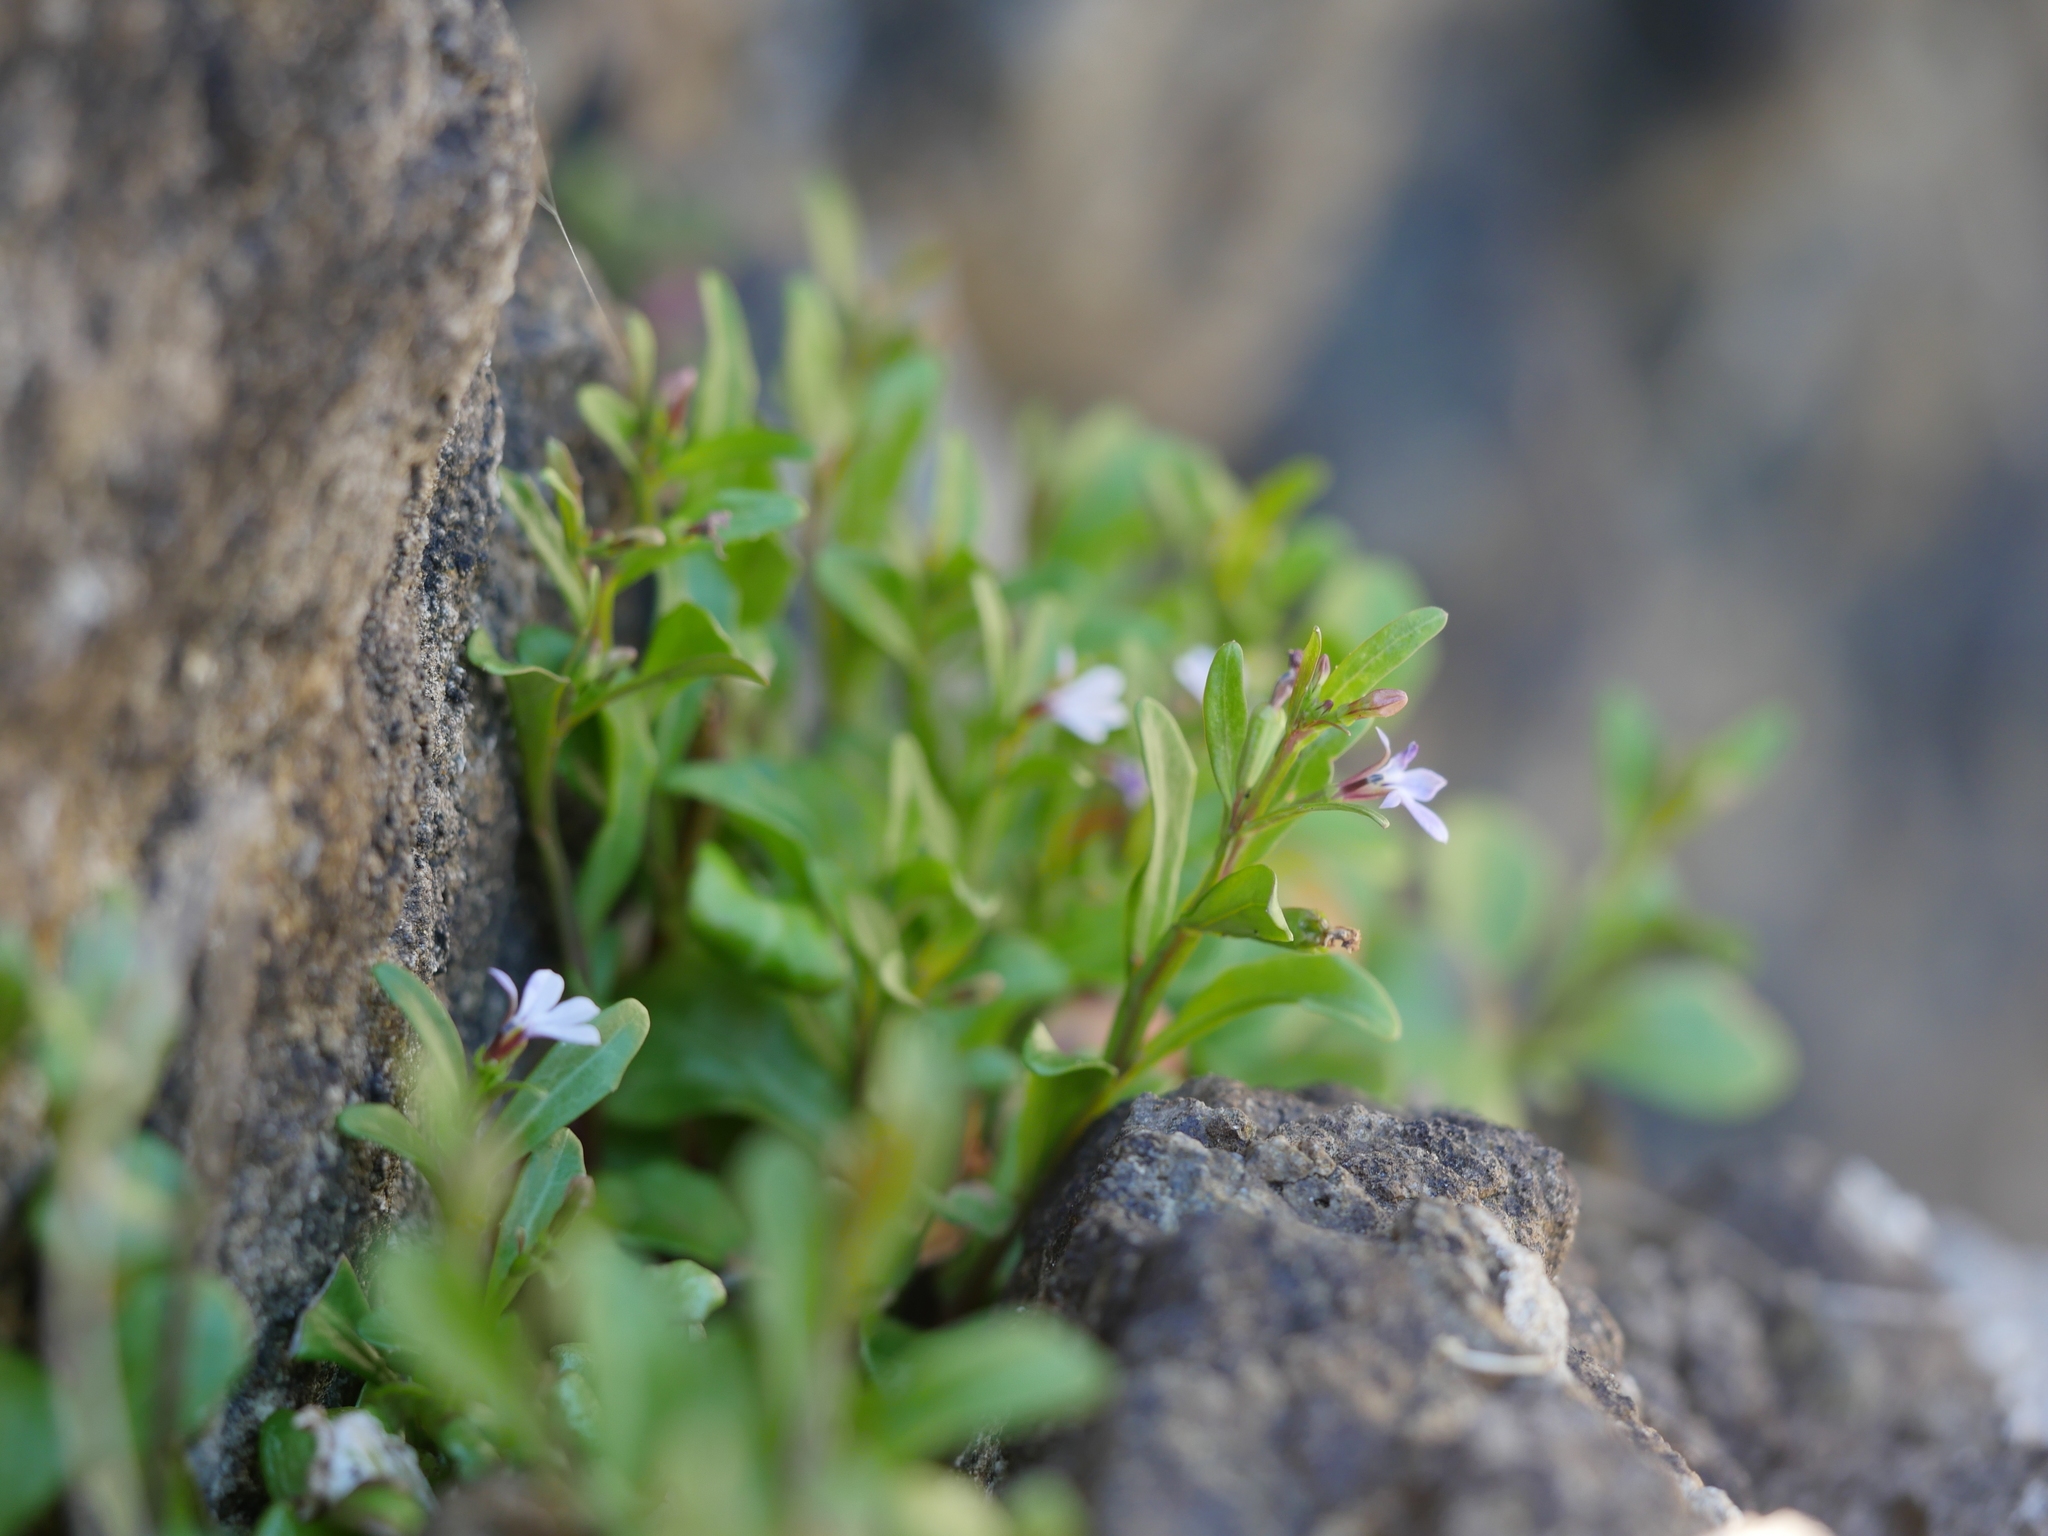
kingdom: Plantae
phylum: Tracheophyta
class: Magnoliopsida
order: Asterales
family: Campanulaceae
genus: Lobelia
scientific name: Lobelia anceps
